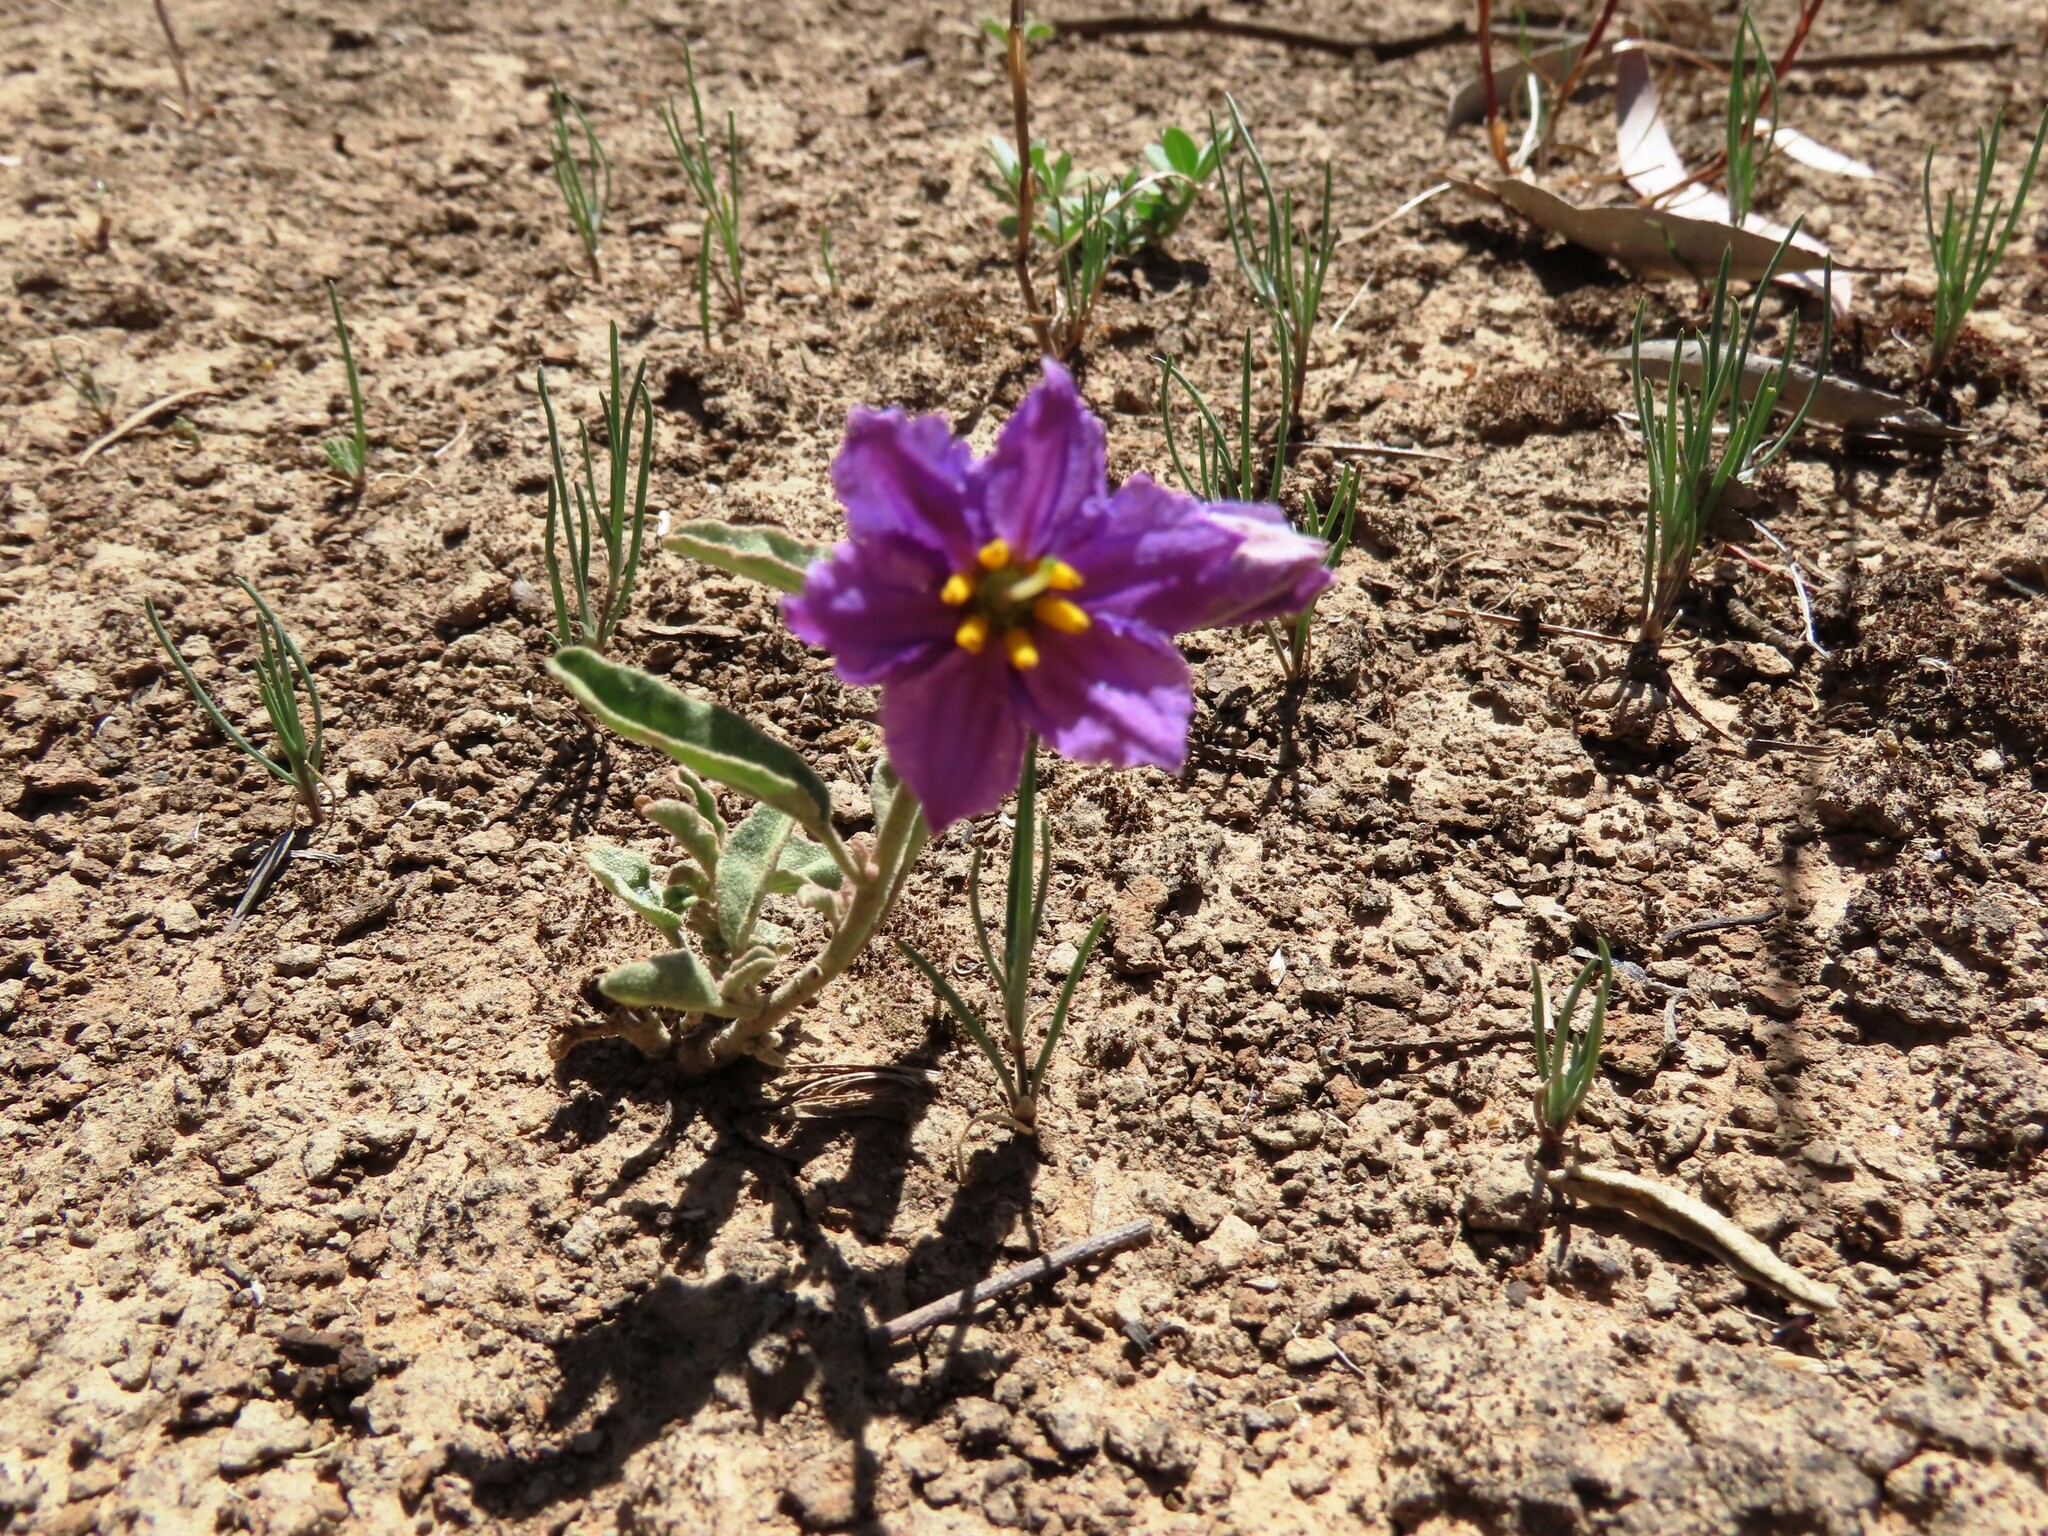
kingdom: Plantae
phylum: Tracheophyta
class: Magnoliopsida
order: Solanales
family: Solanaceae
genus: Solanum
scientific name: Solanum esuriale
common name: Wild tomato
